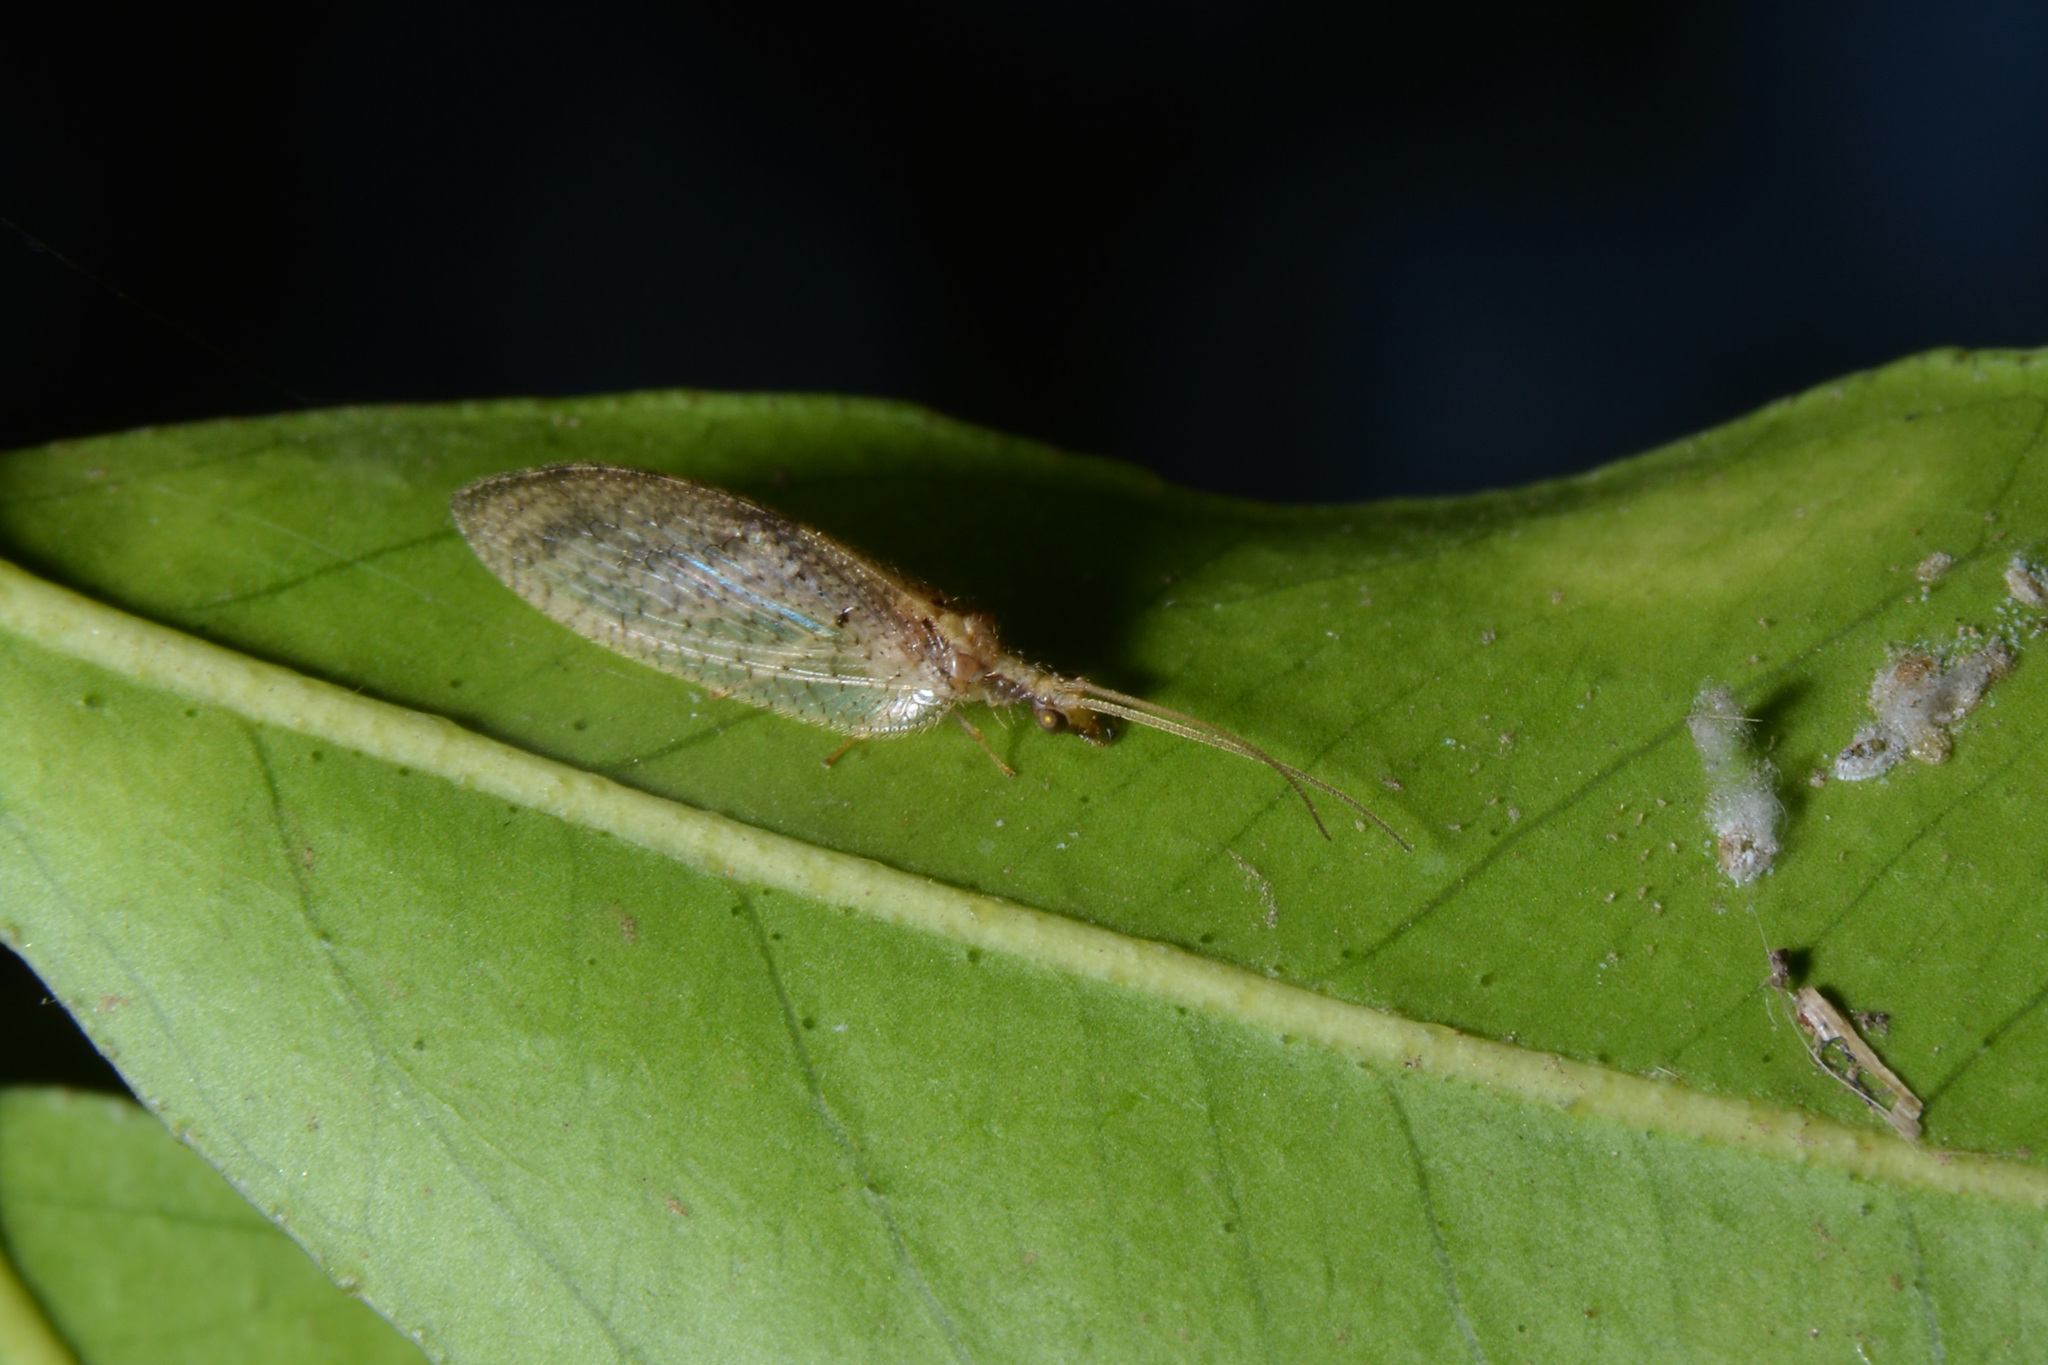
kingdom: Animalia
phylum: Arthropoda
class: Insecta
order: Neuroptera
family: Hemerobiidae
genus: Hemerobius
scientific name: Hemerobius bolivari
